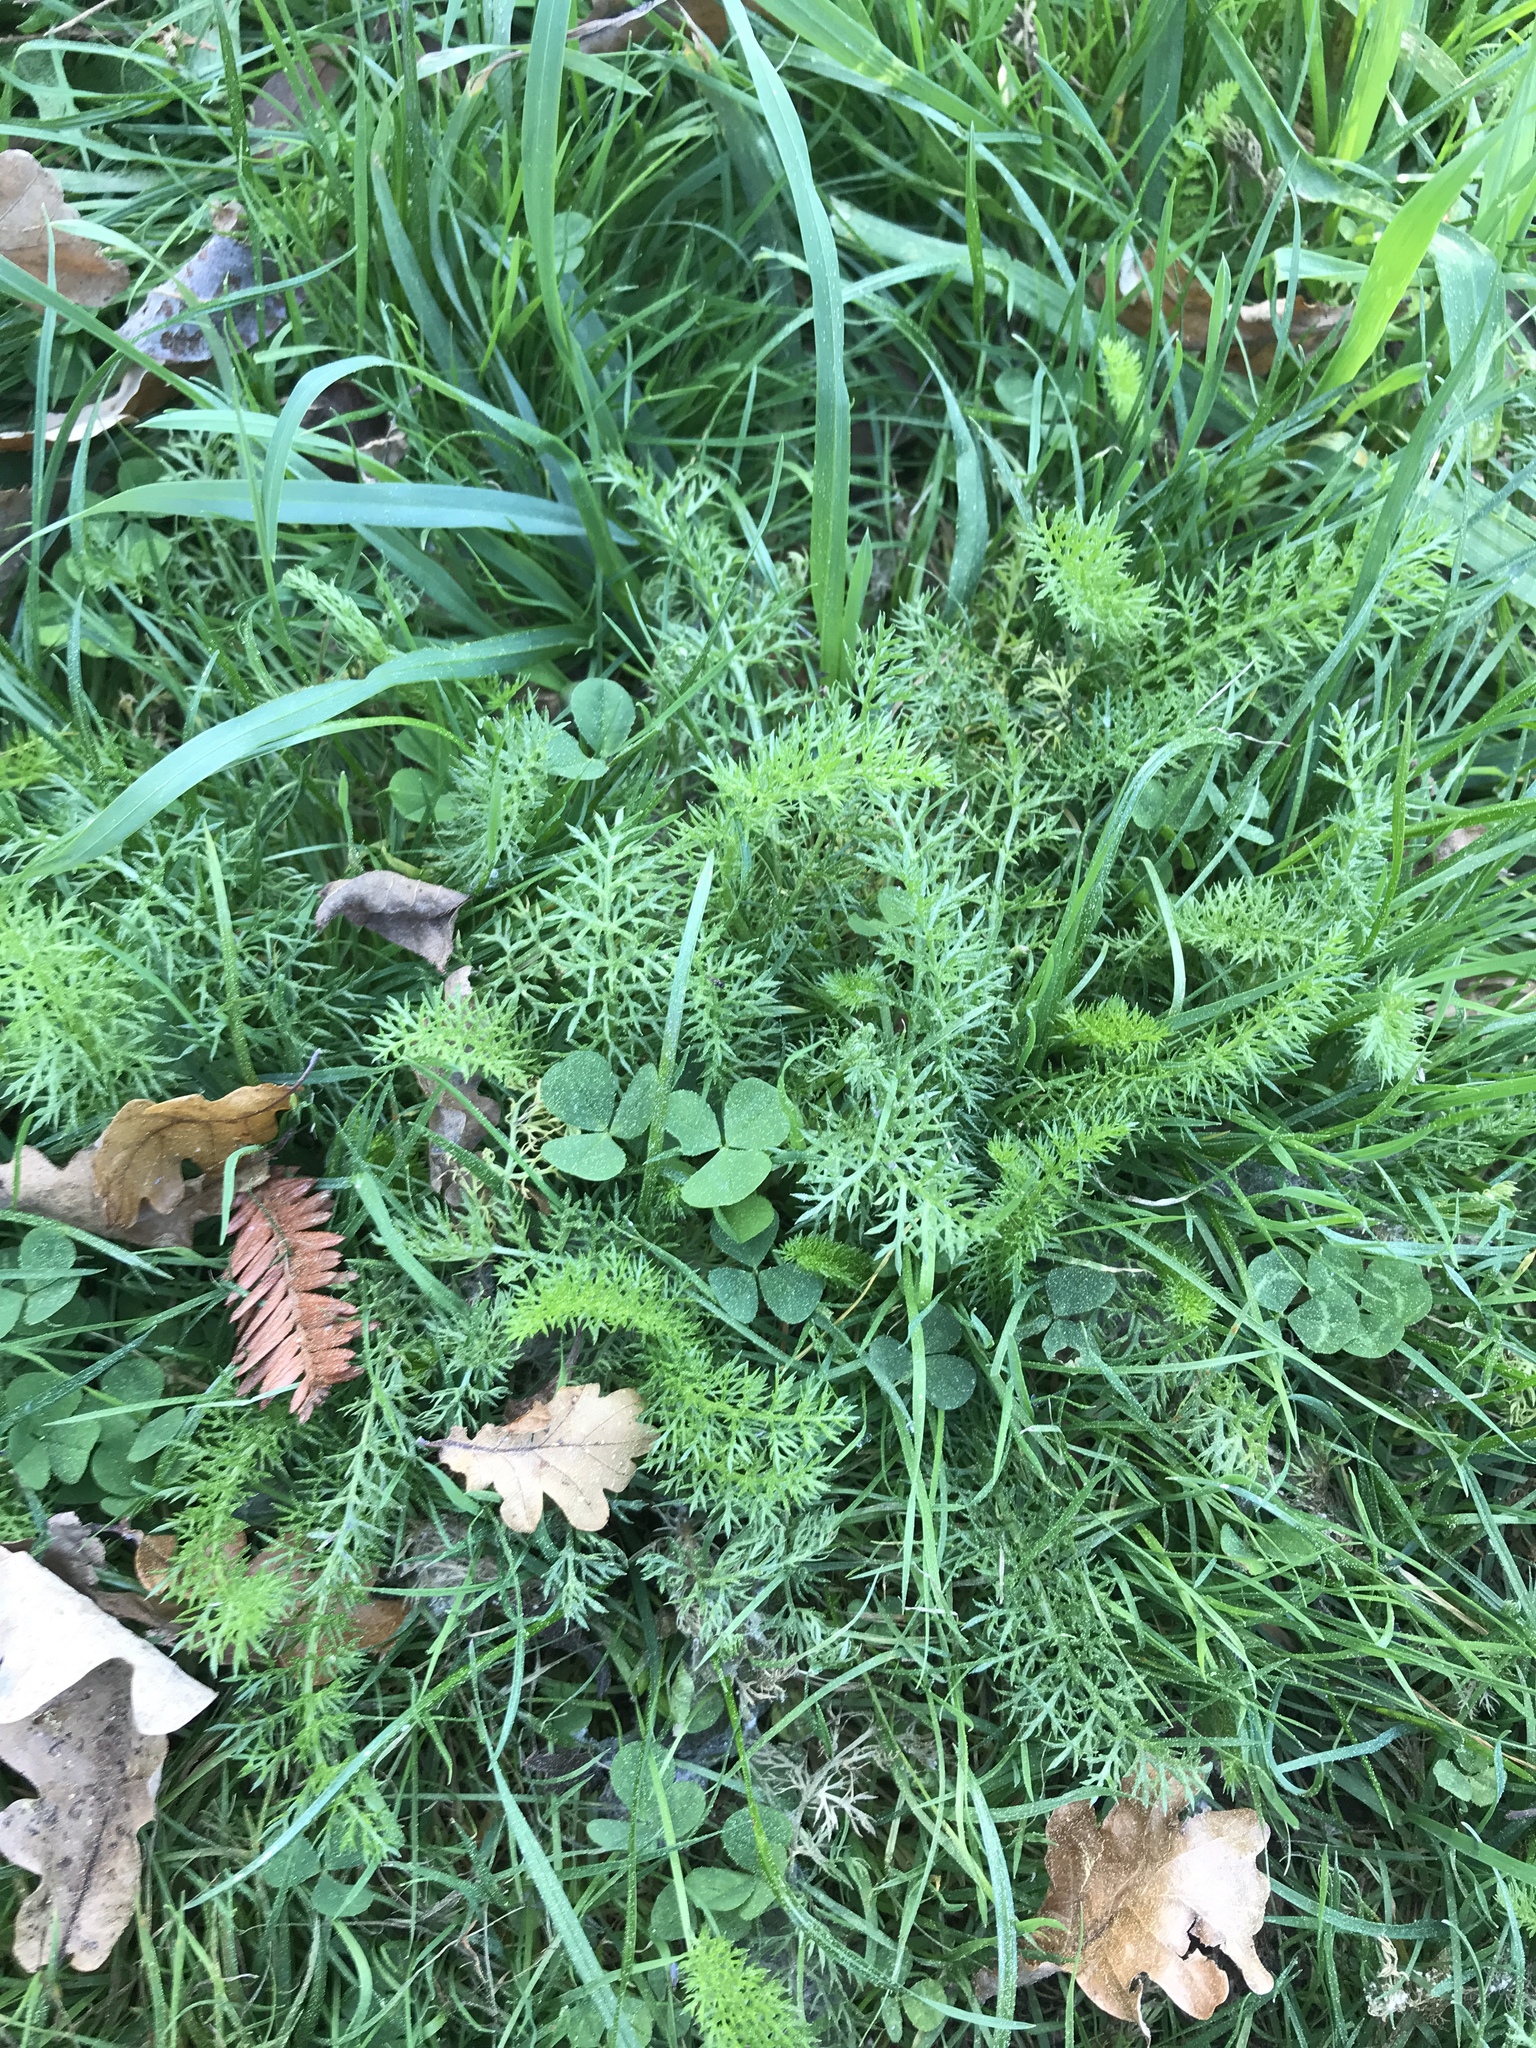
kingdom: Plantae
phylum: Tracheophyta
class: Magnoliopsida
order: Asterales
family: Asteraceae
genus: Achillea
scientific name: Achillea millefolium
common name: Yarrow
